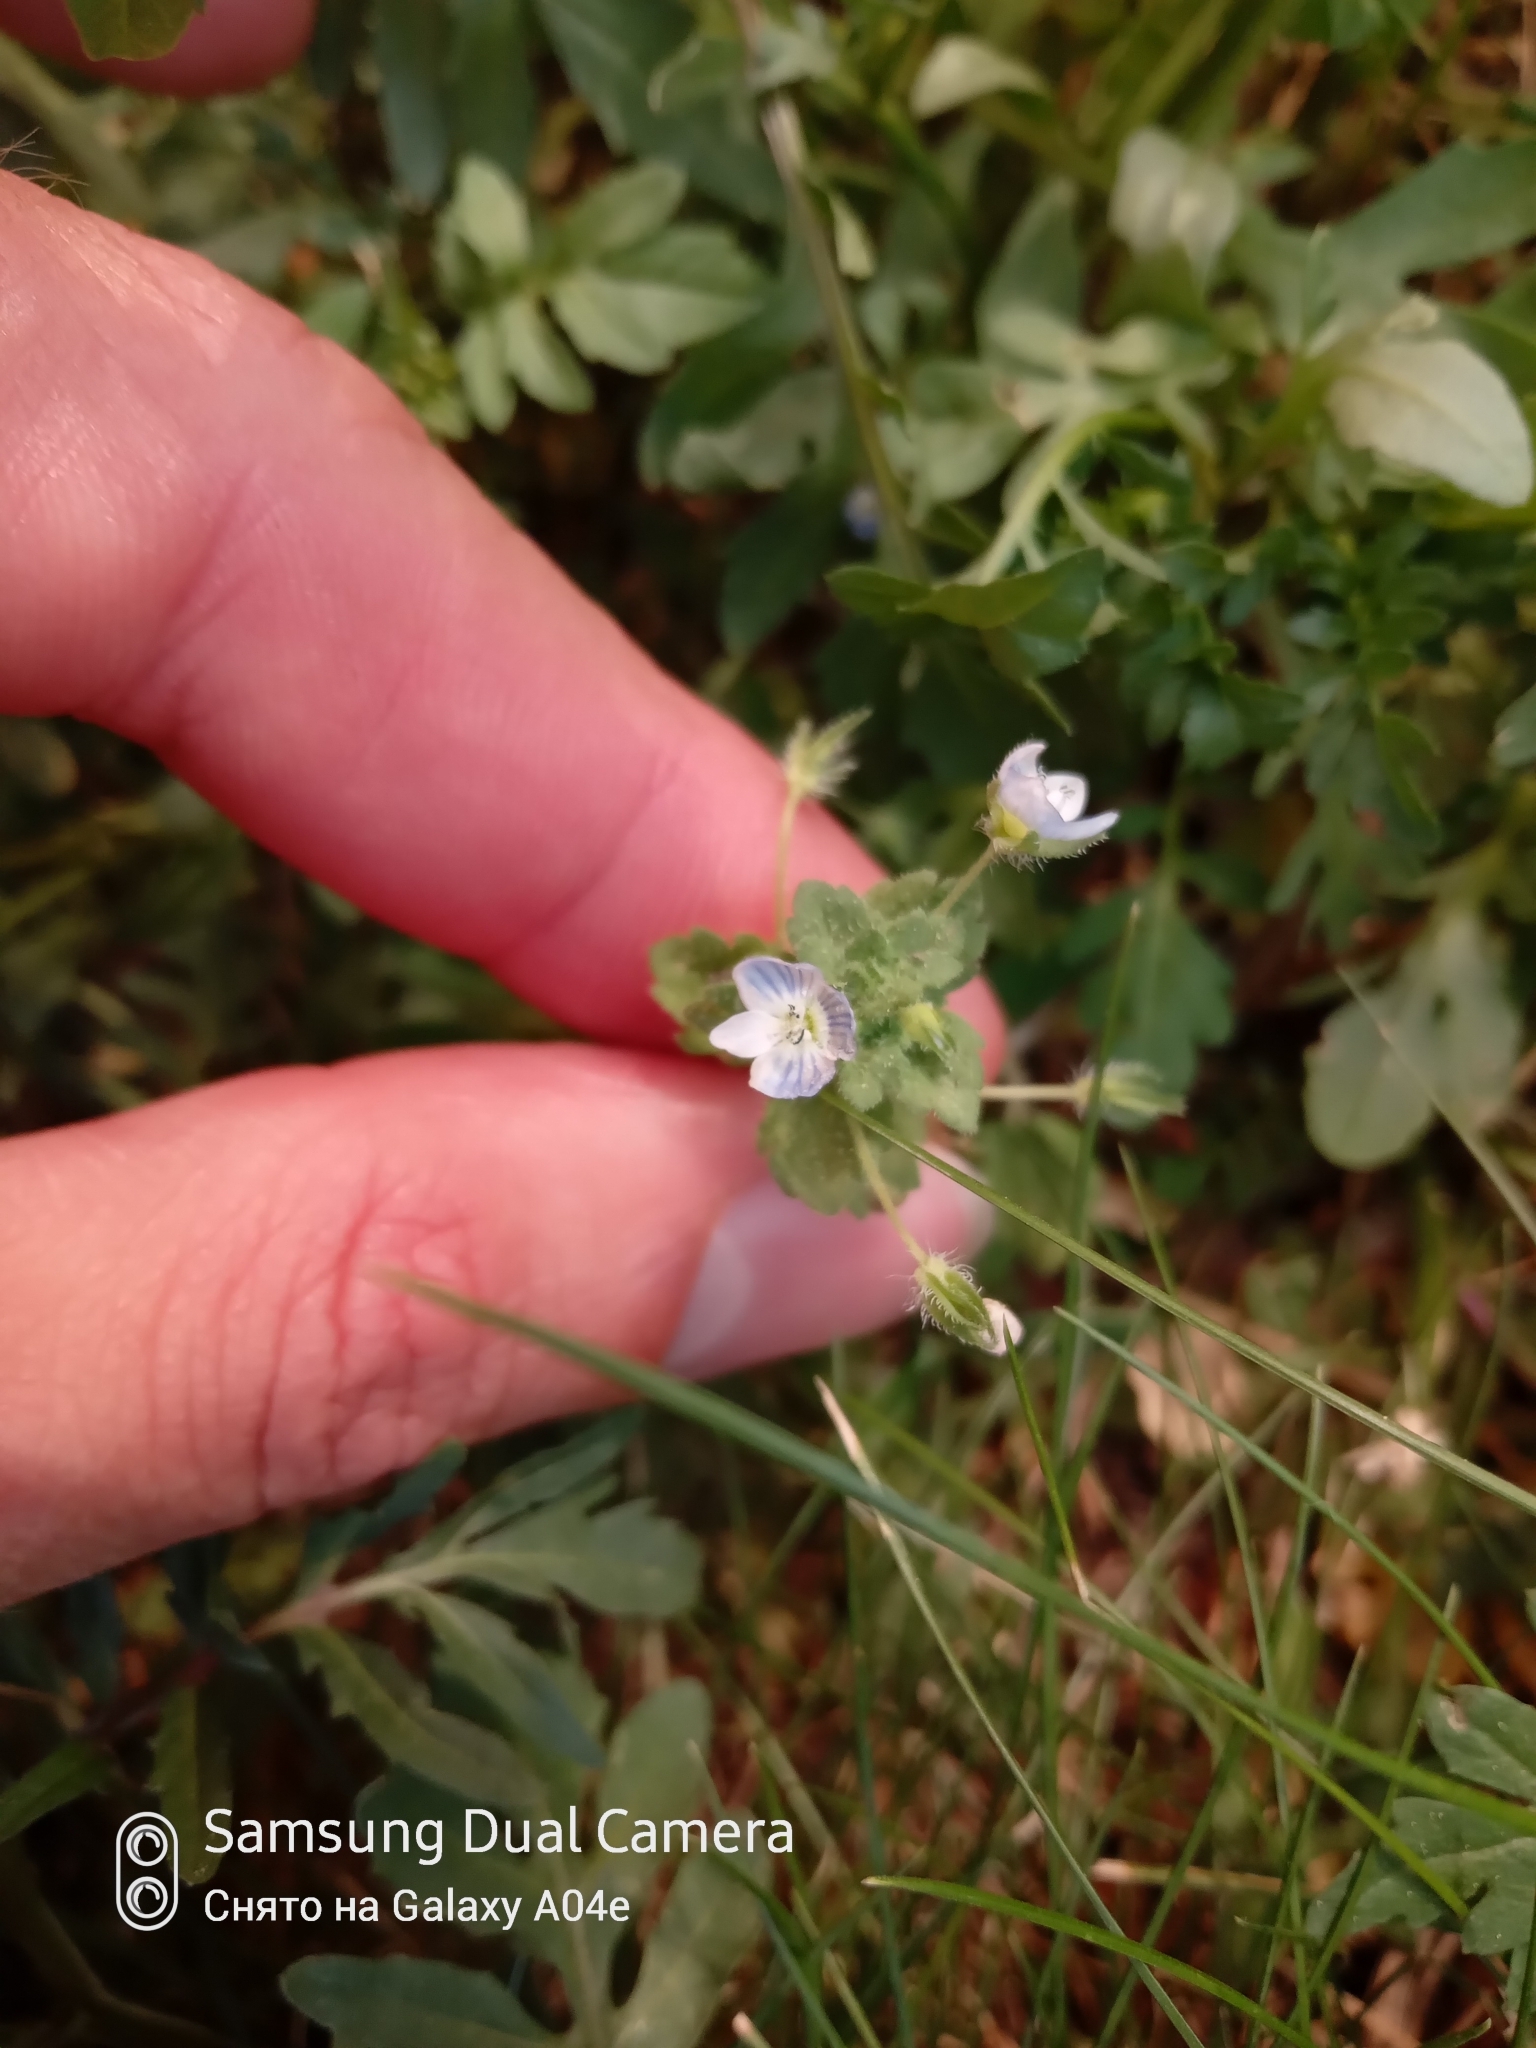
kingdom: Plantae
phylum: Tracheophyta
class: Magnoliopsida
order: Lamiales
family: Plantaginaceae
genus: Veronica
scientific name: Veronica persica
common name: Common field-speedwell
